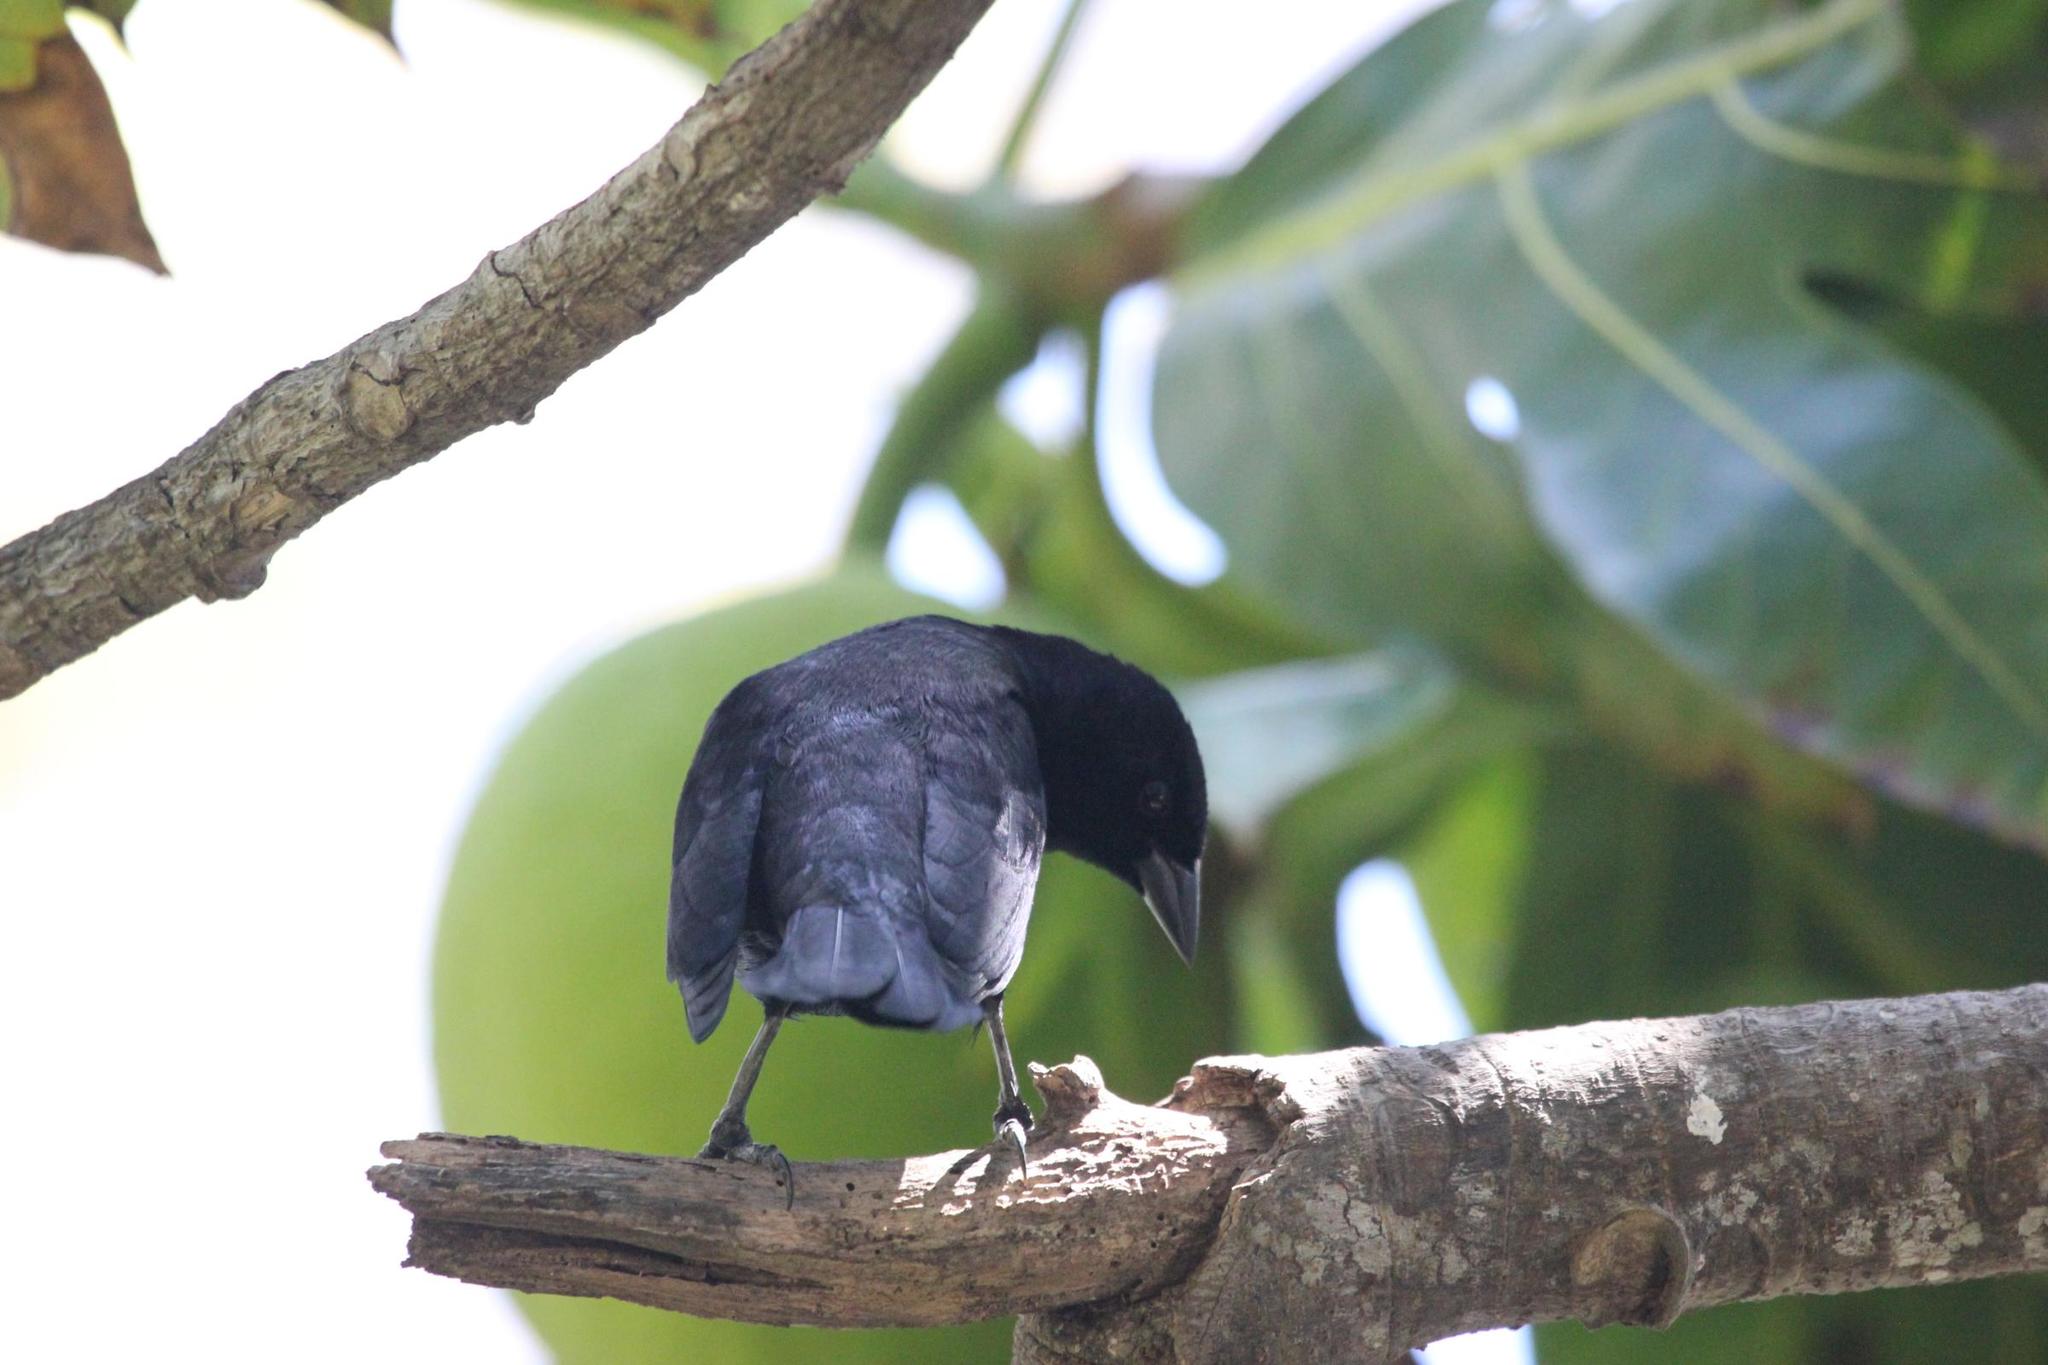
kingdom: Animalia
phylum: Chordata
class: Aves
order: Passeriformes
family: Icteridae
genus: Molothrus
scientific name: Molothrus bonariensis
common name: Shiny cowbird
